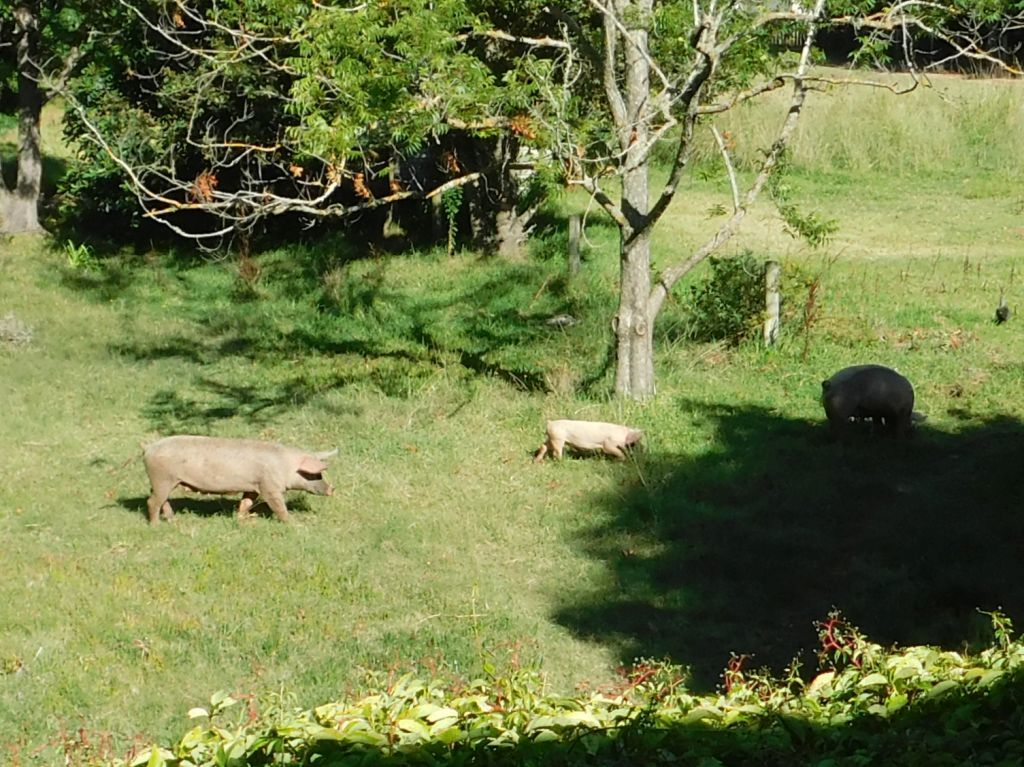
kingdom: Animalia
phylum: Chordata
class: Mammalia
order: Artiodactyla
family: Suidae
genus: Sus
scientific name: Sus scrofa
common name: Wild boar
